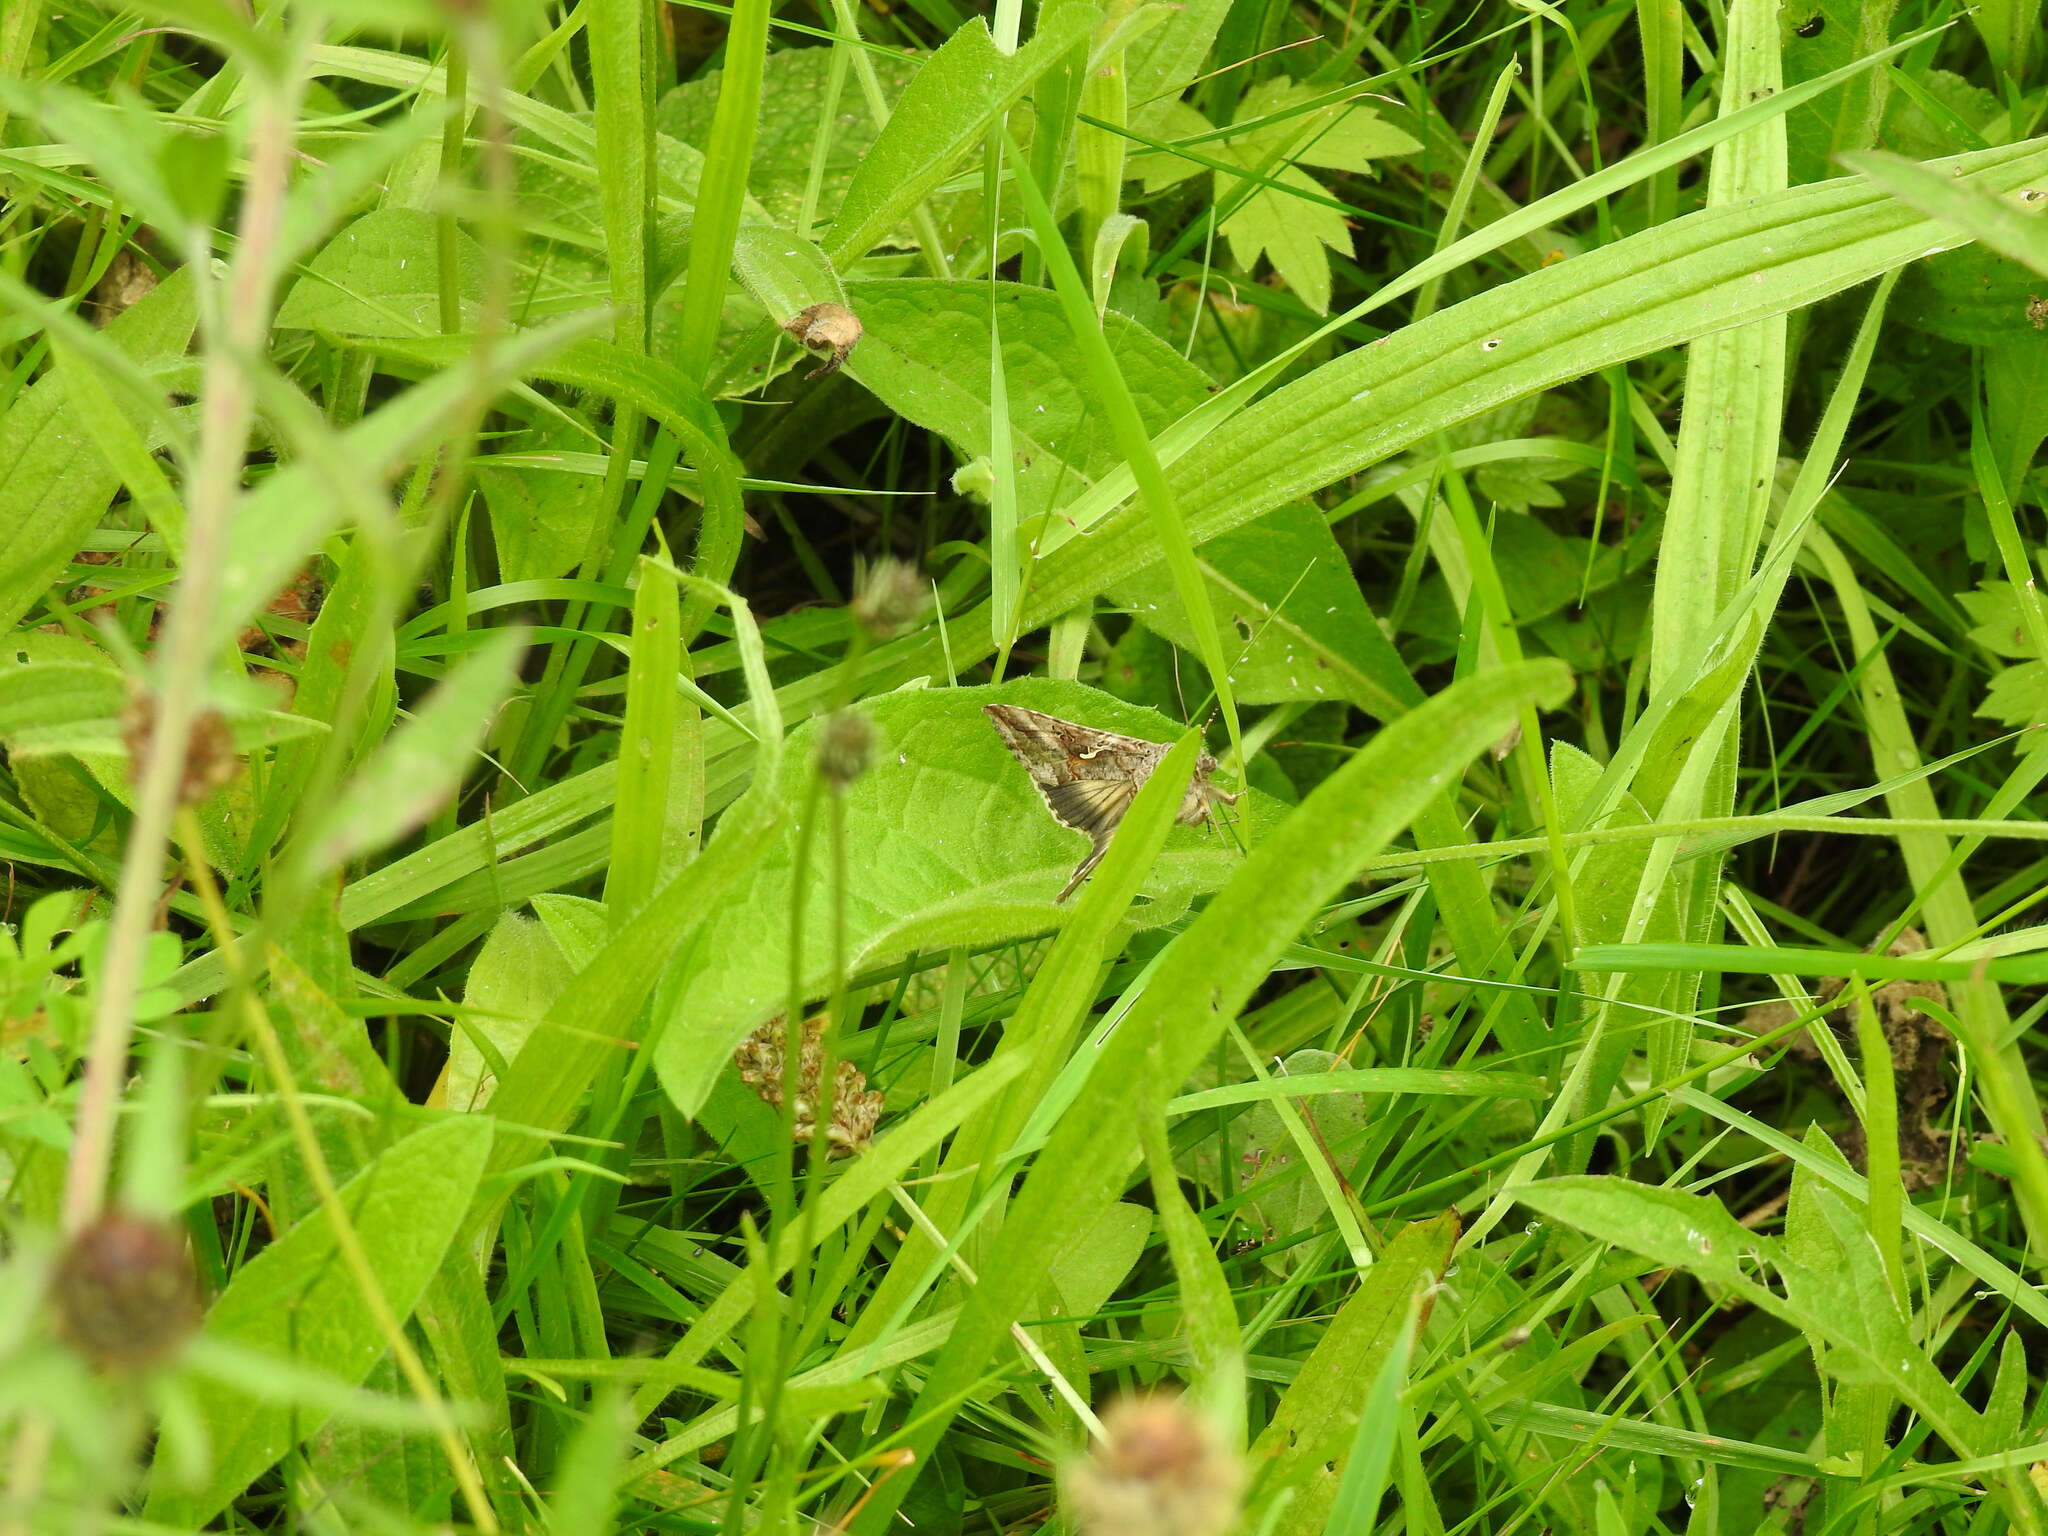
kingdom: Animalia
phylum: Arthropoda
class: Insecta
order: Lepidoptera
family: Noctuidae
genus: Autographa
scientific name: Autographa gamma
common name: Silver y
